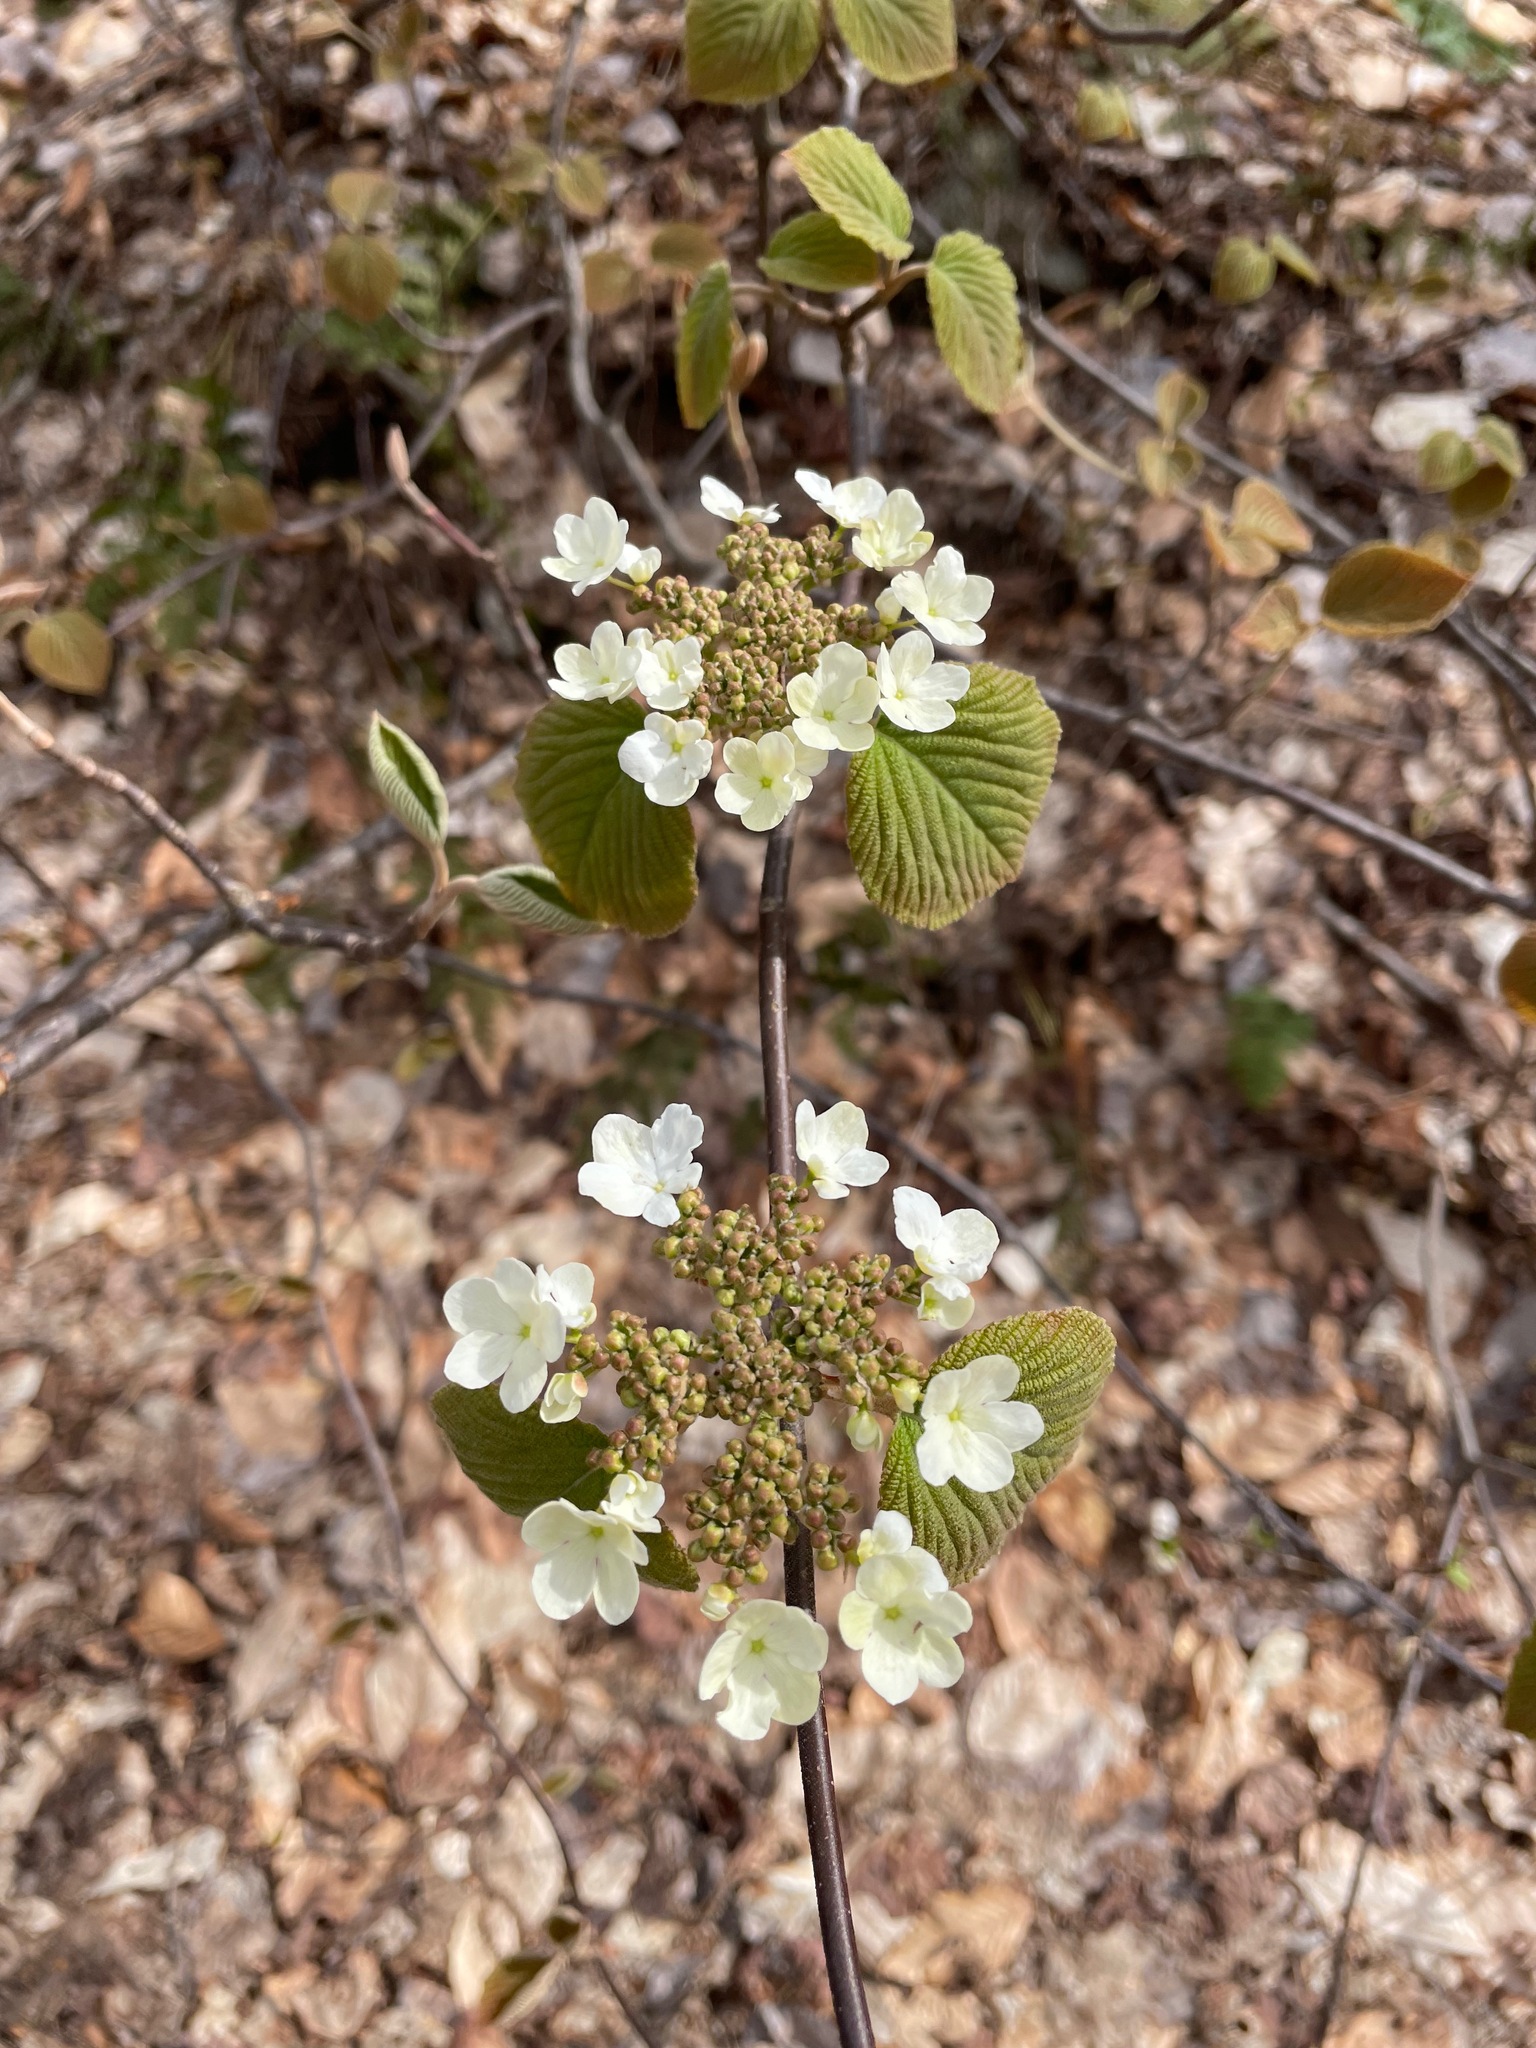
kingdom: Plantae
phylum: Tracheophyta
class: Magnoliopsida
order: Dipsacales
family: Viburnaceae
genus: Viburnum
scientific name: Viburnum lantanoides
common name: Hobblebush
